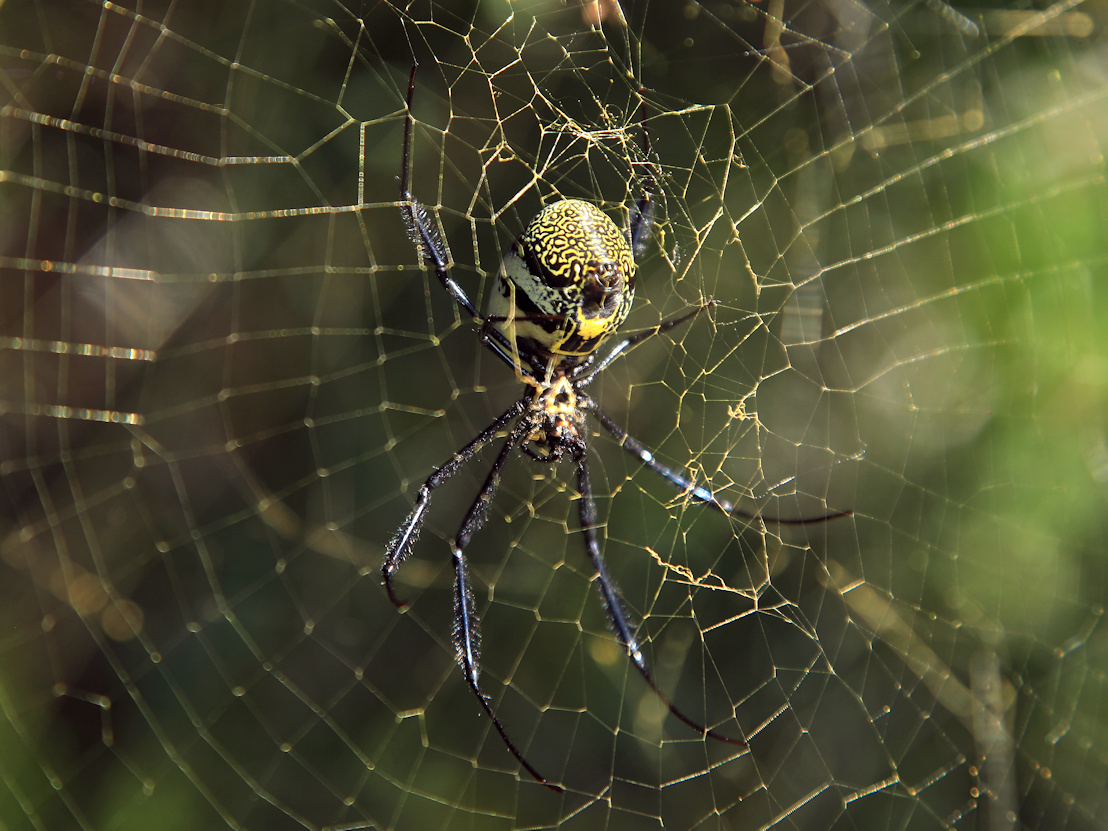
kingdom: Animalia
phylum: Arthropoda
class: Arachnida
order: Araneae
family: Araneidae
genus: Trichonephila
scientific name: Trichonephila fenestrata
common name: Hairy golden orb weaver
